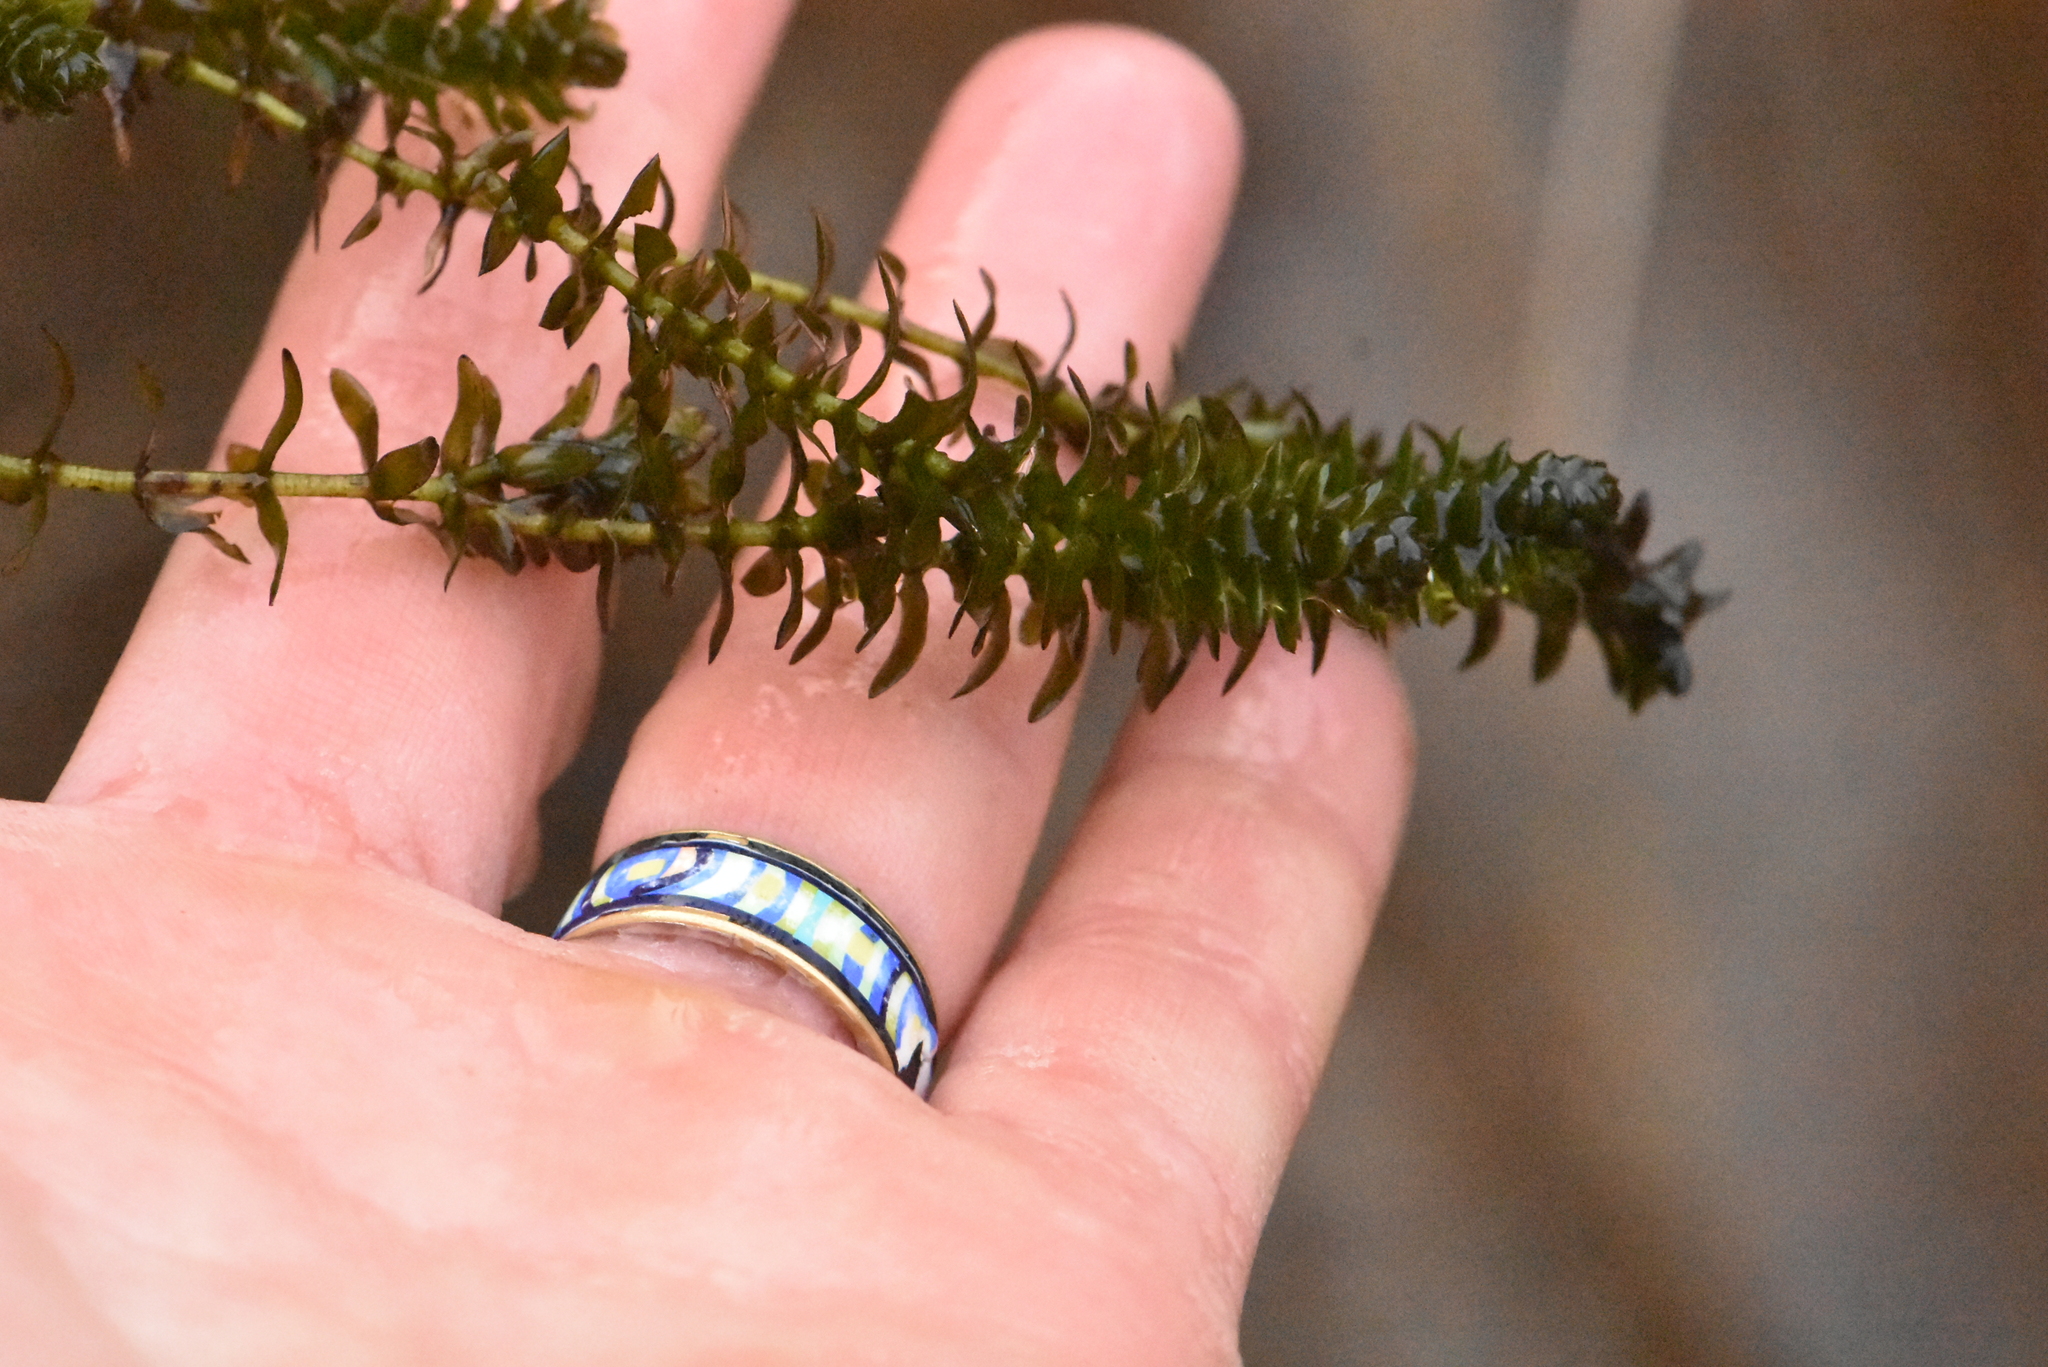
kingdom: Plantae
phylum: Tracheophyta
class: Liliopsida
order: Alismatales
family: Hydrocharitaceae
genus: Elodea
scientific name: Elodea canadensis
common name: Canadian waterweed
